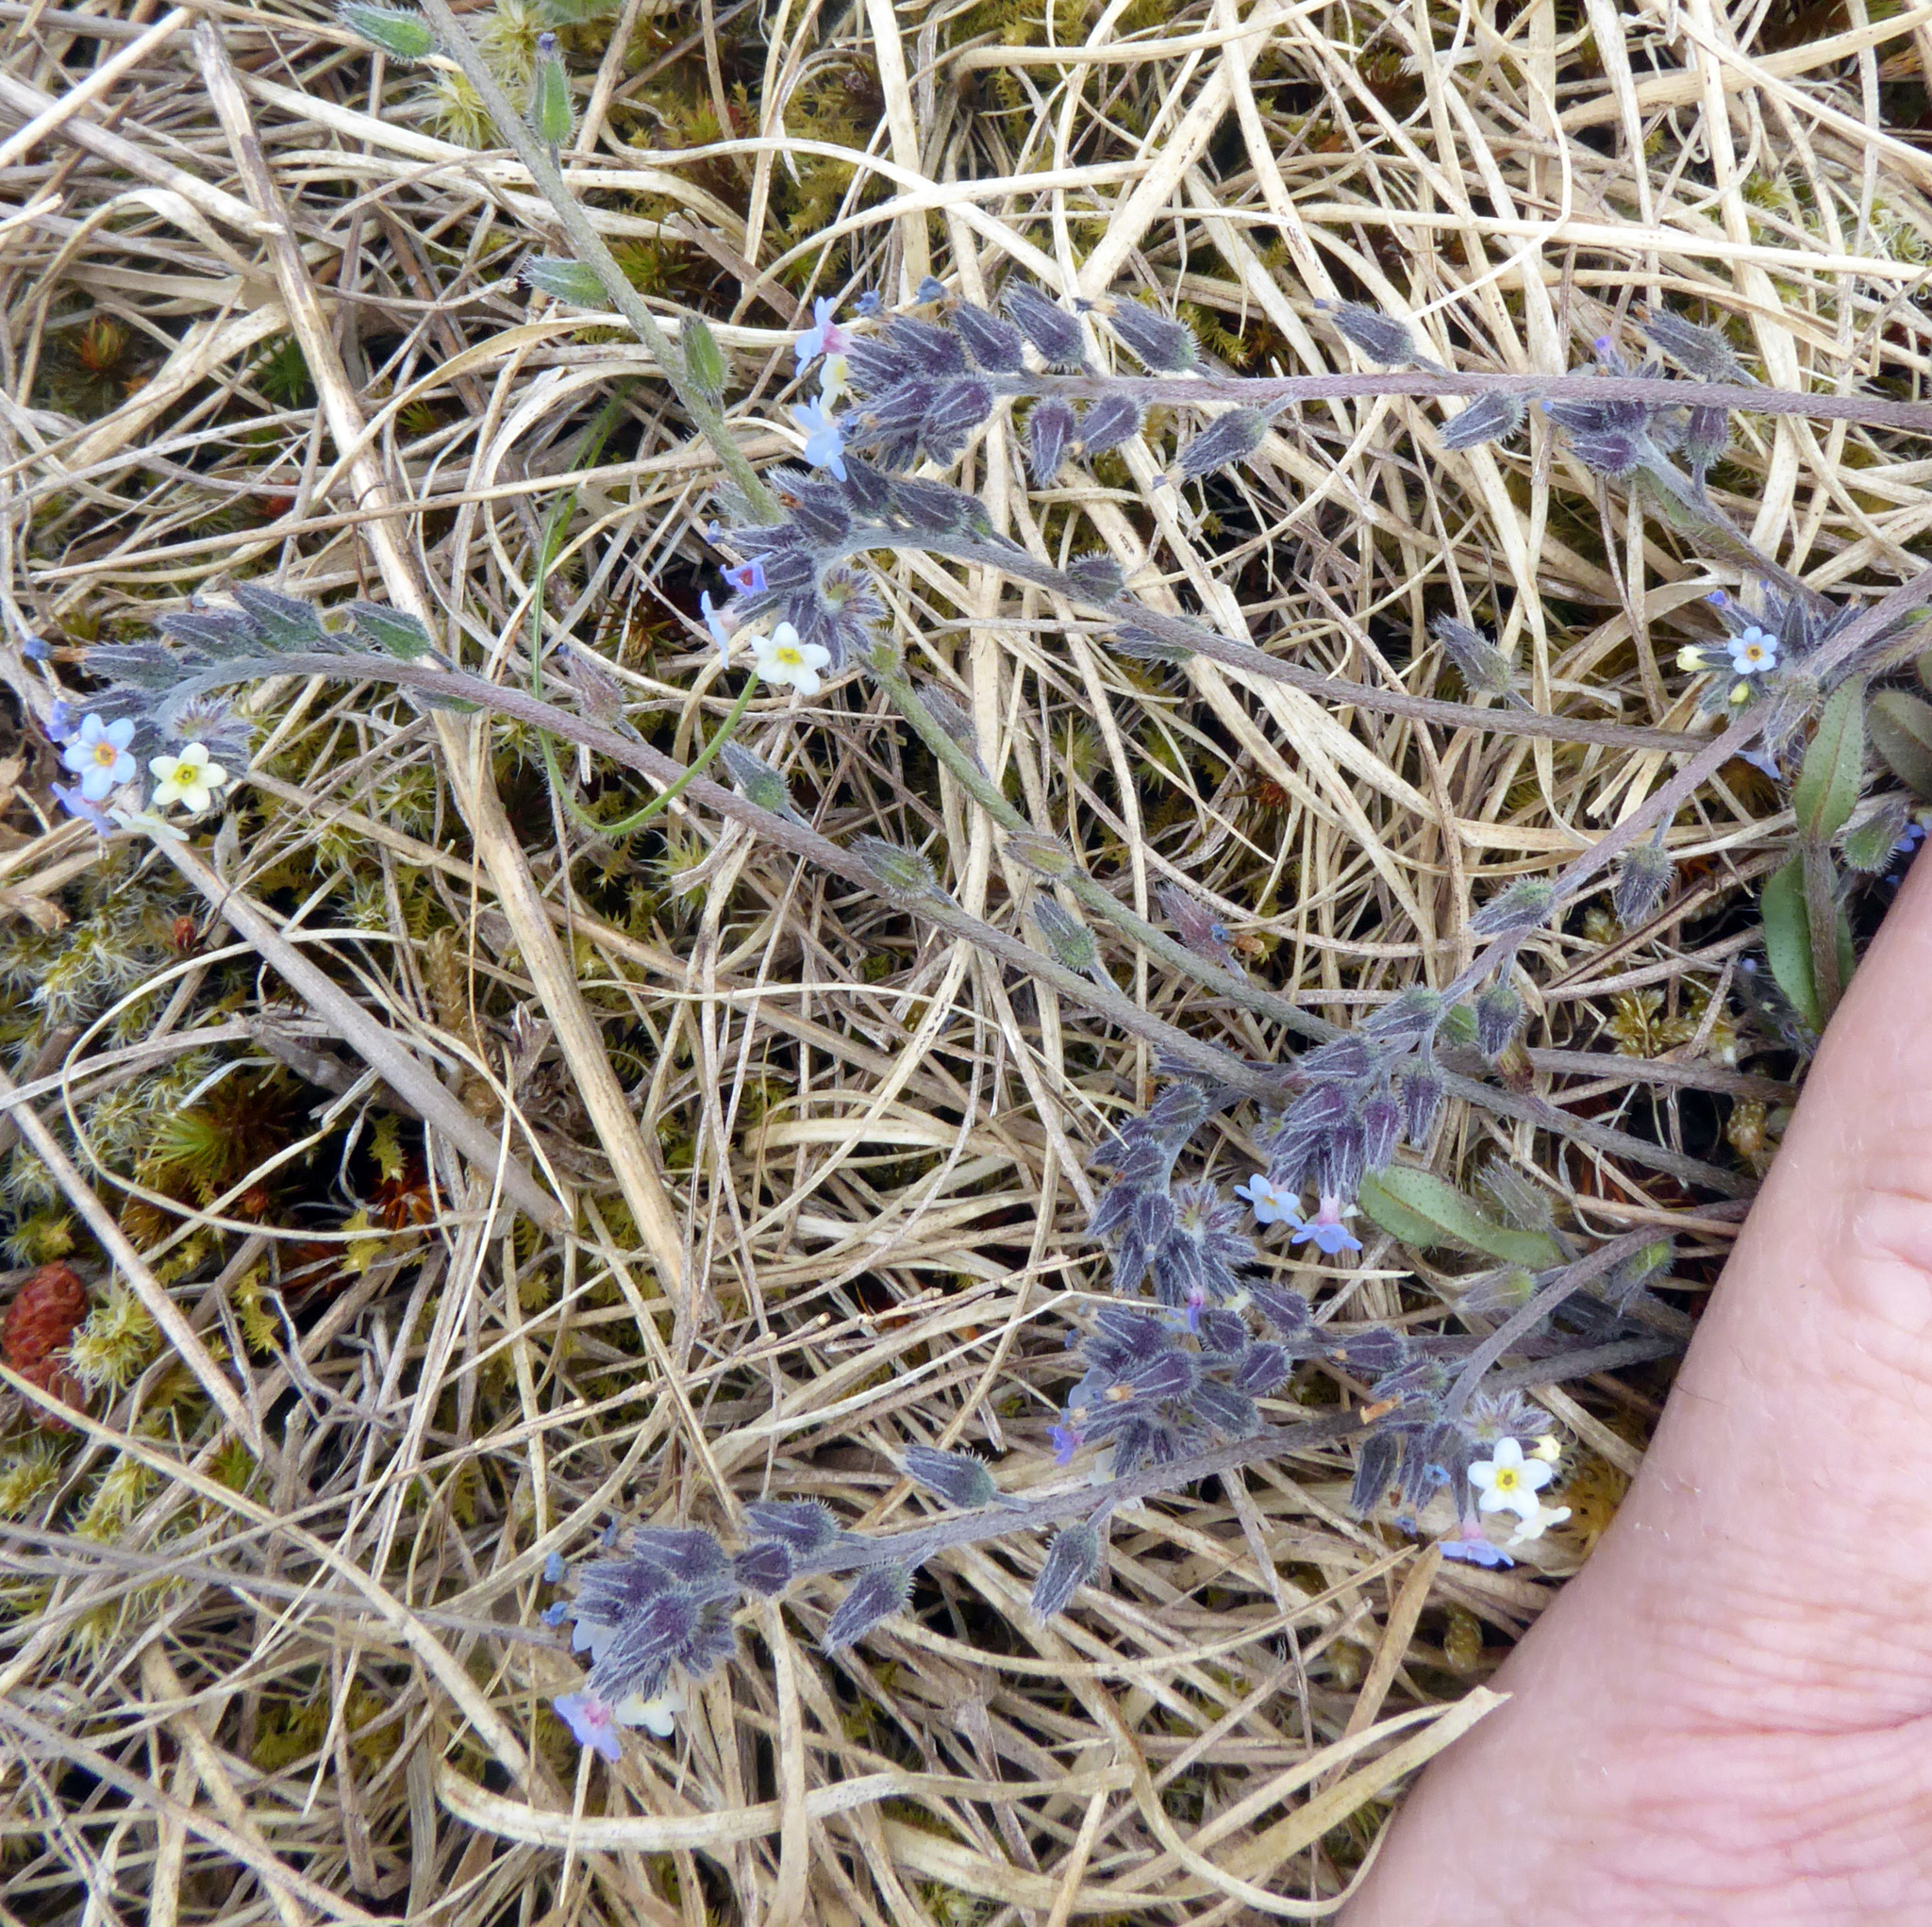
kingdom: Plantae
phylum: Tracheophyta
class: Magnoliopsida
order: Boraginales
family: Boraginaceae
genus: Myosotis
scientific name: Myosotis discolor
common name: Changing forget-me-not
